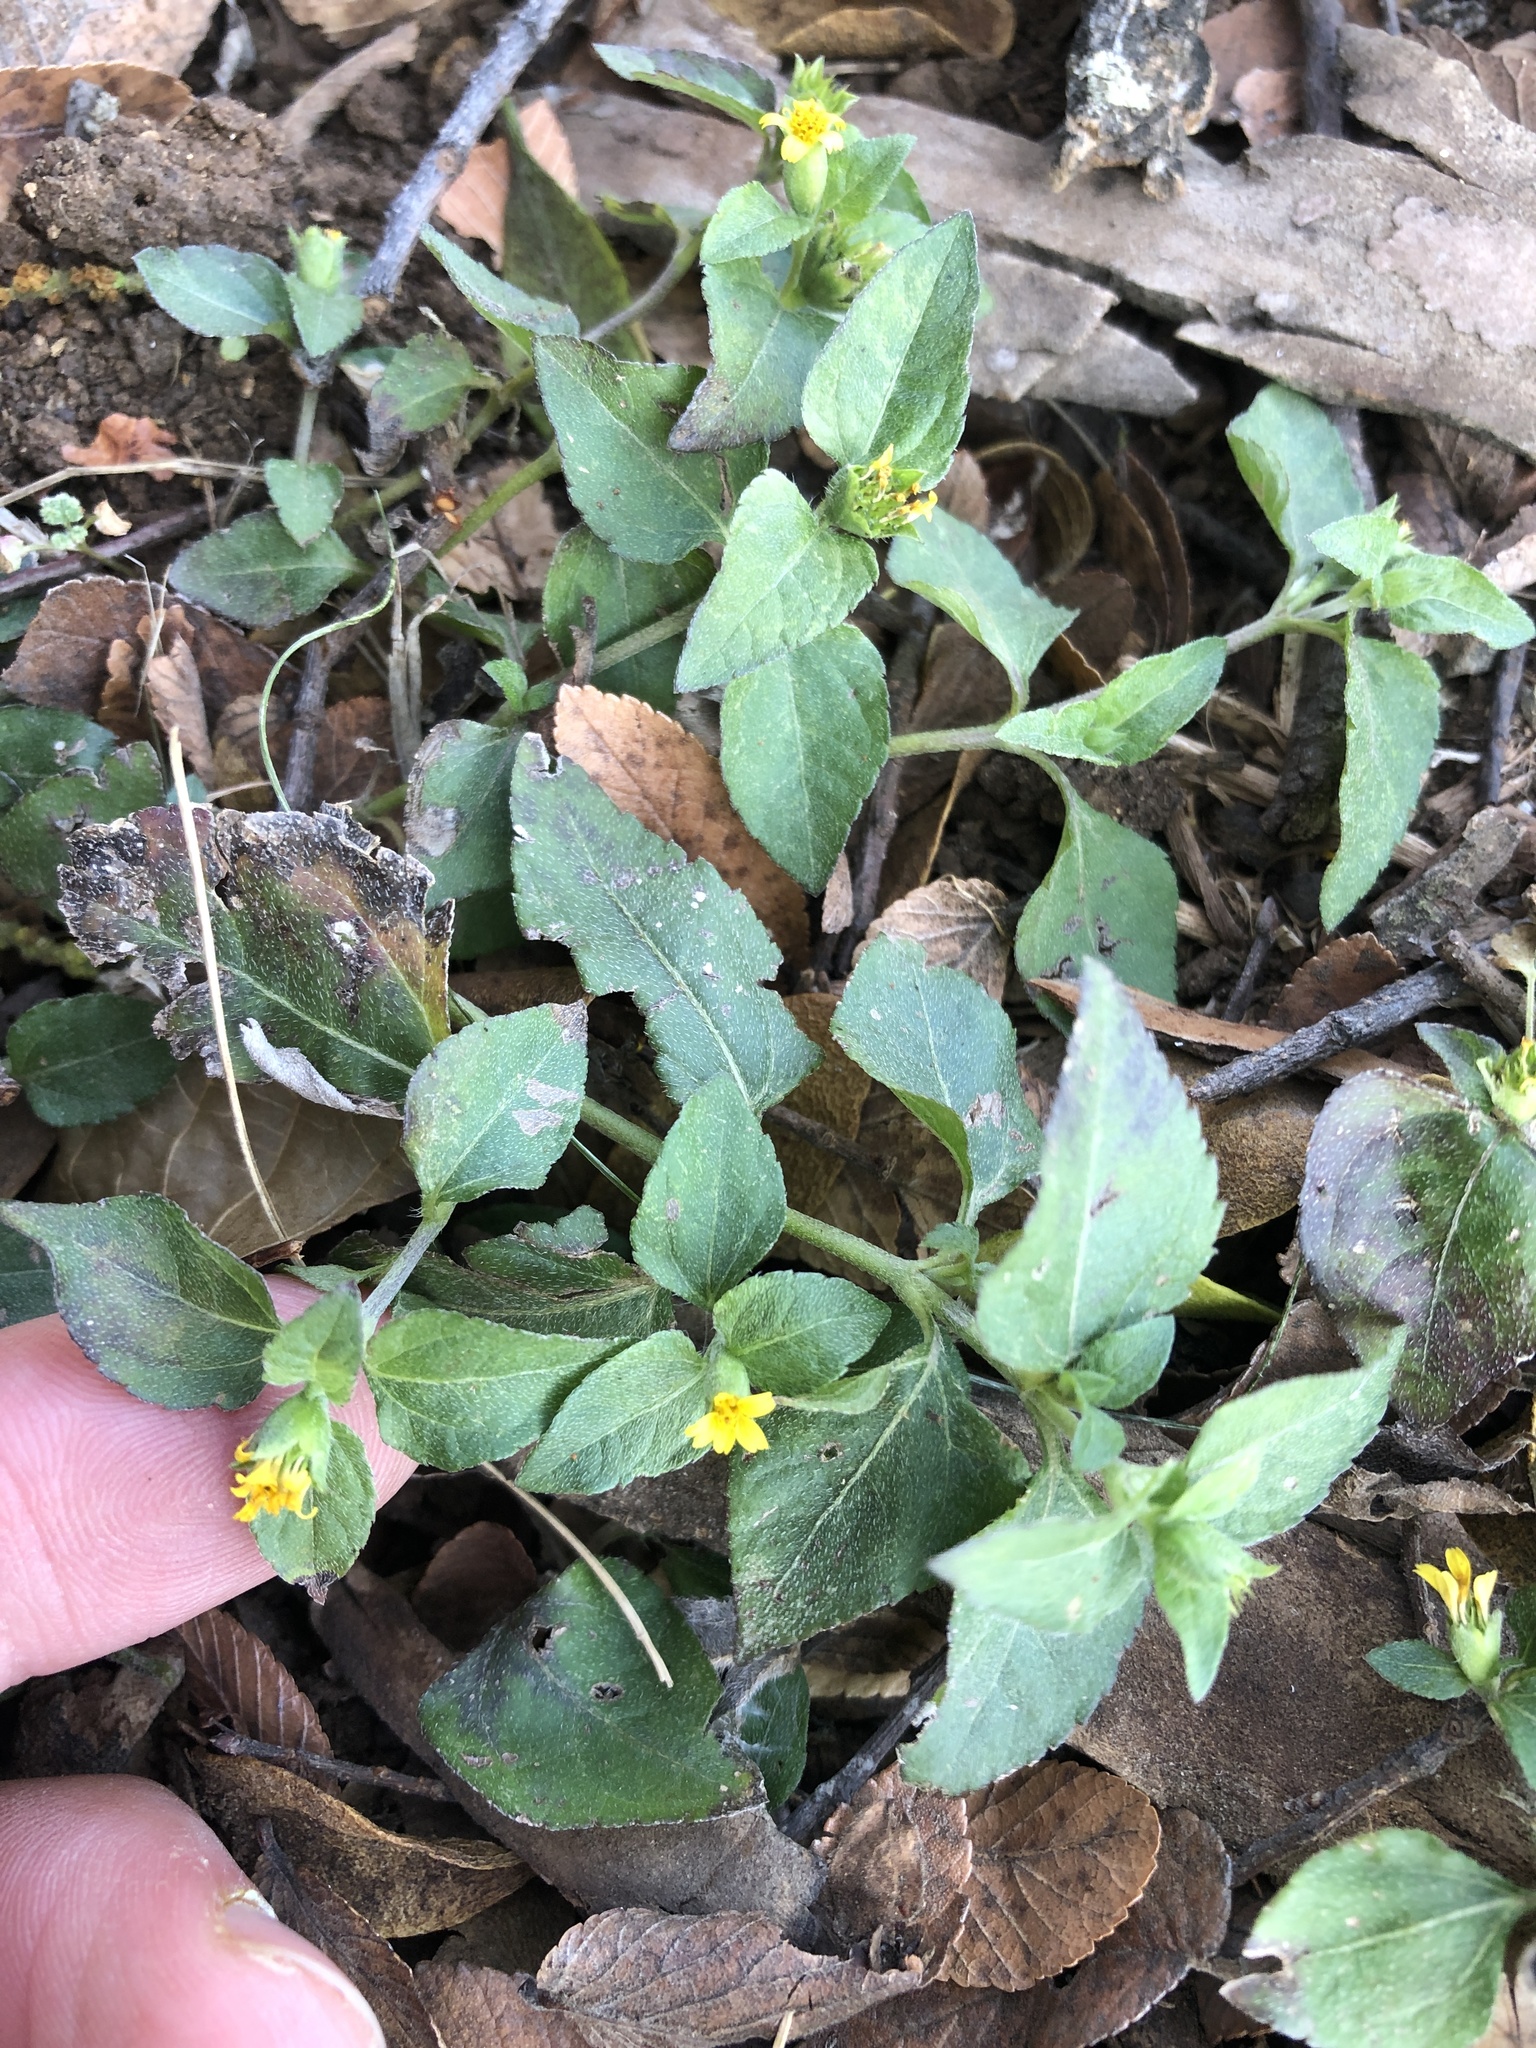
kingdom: Plantae
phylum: Tracheophyta
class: Magnoliopsida
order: Asterales
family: Asteraceae
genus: Calyptocarpus
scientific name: Calyptocarpus vialis
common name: Straggler daisy
